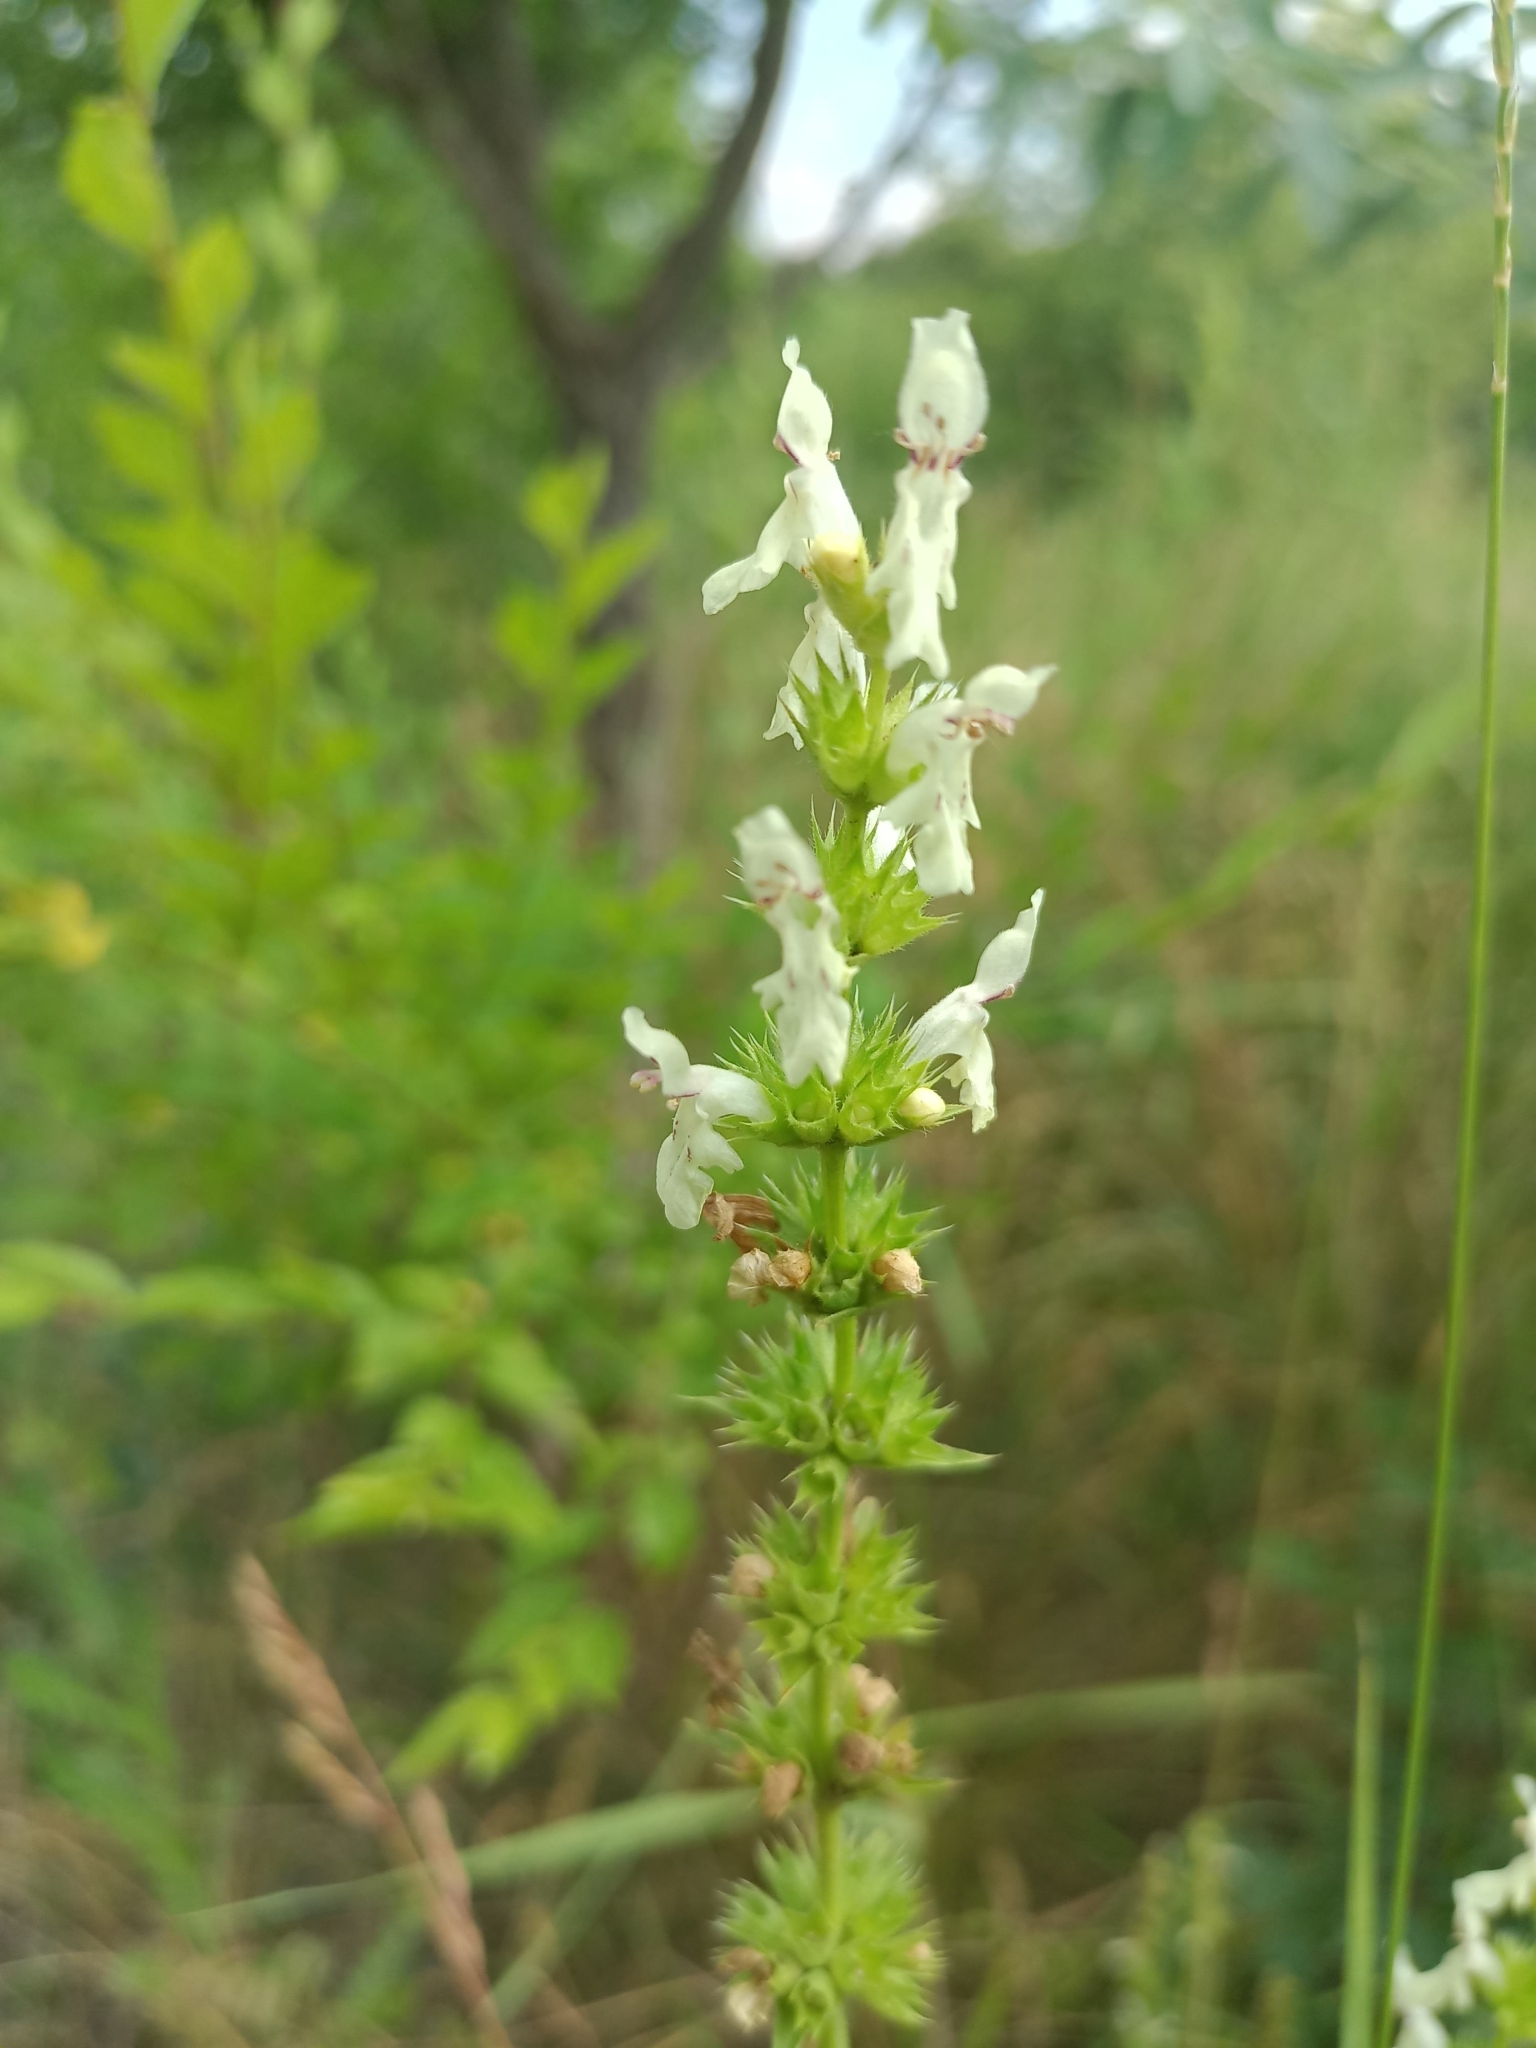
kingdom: Plantae
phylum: Tracheophyta
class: Magnoliopsida
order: Lamiales
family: Lamiaceae
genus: Stachys
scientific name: Stachys recta
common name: Perennial yellow-woundwort
